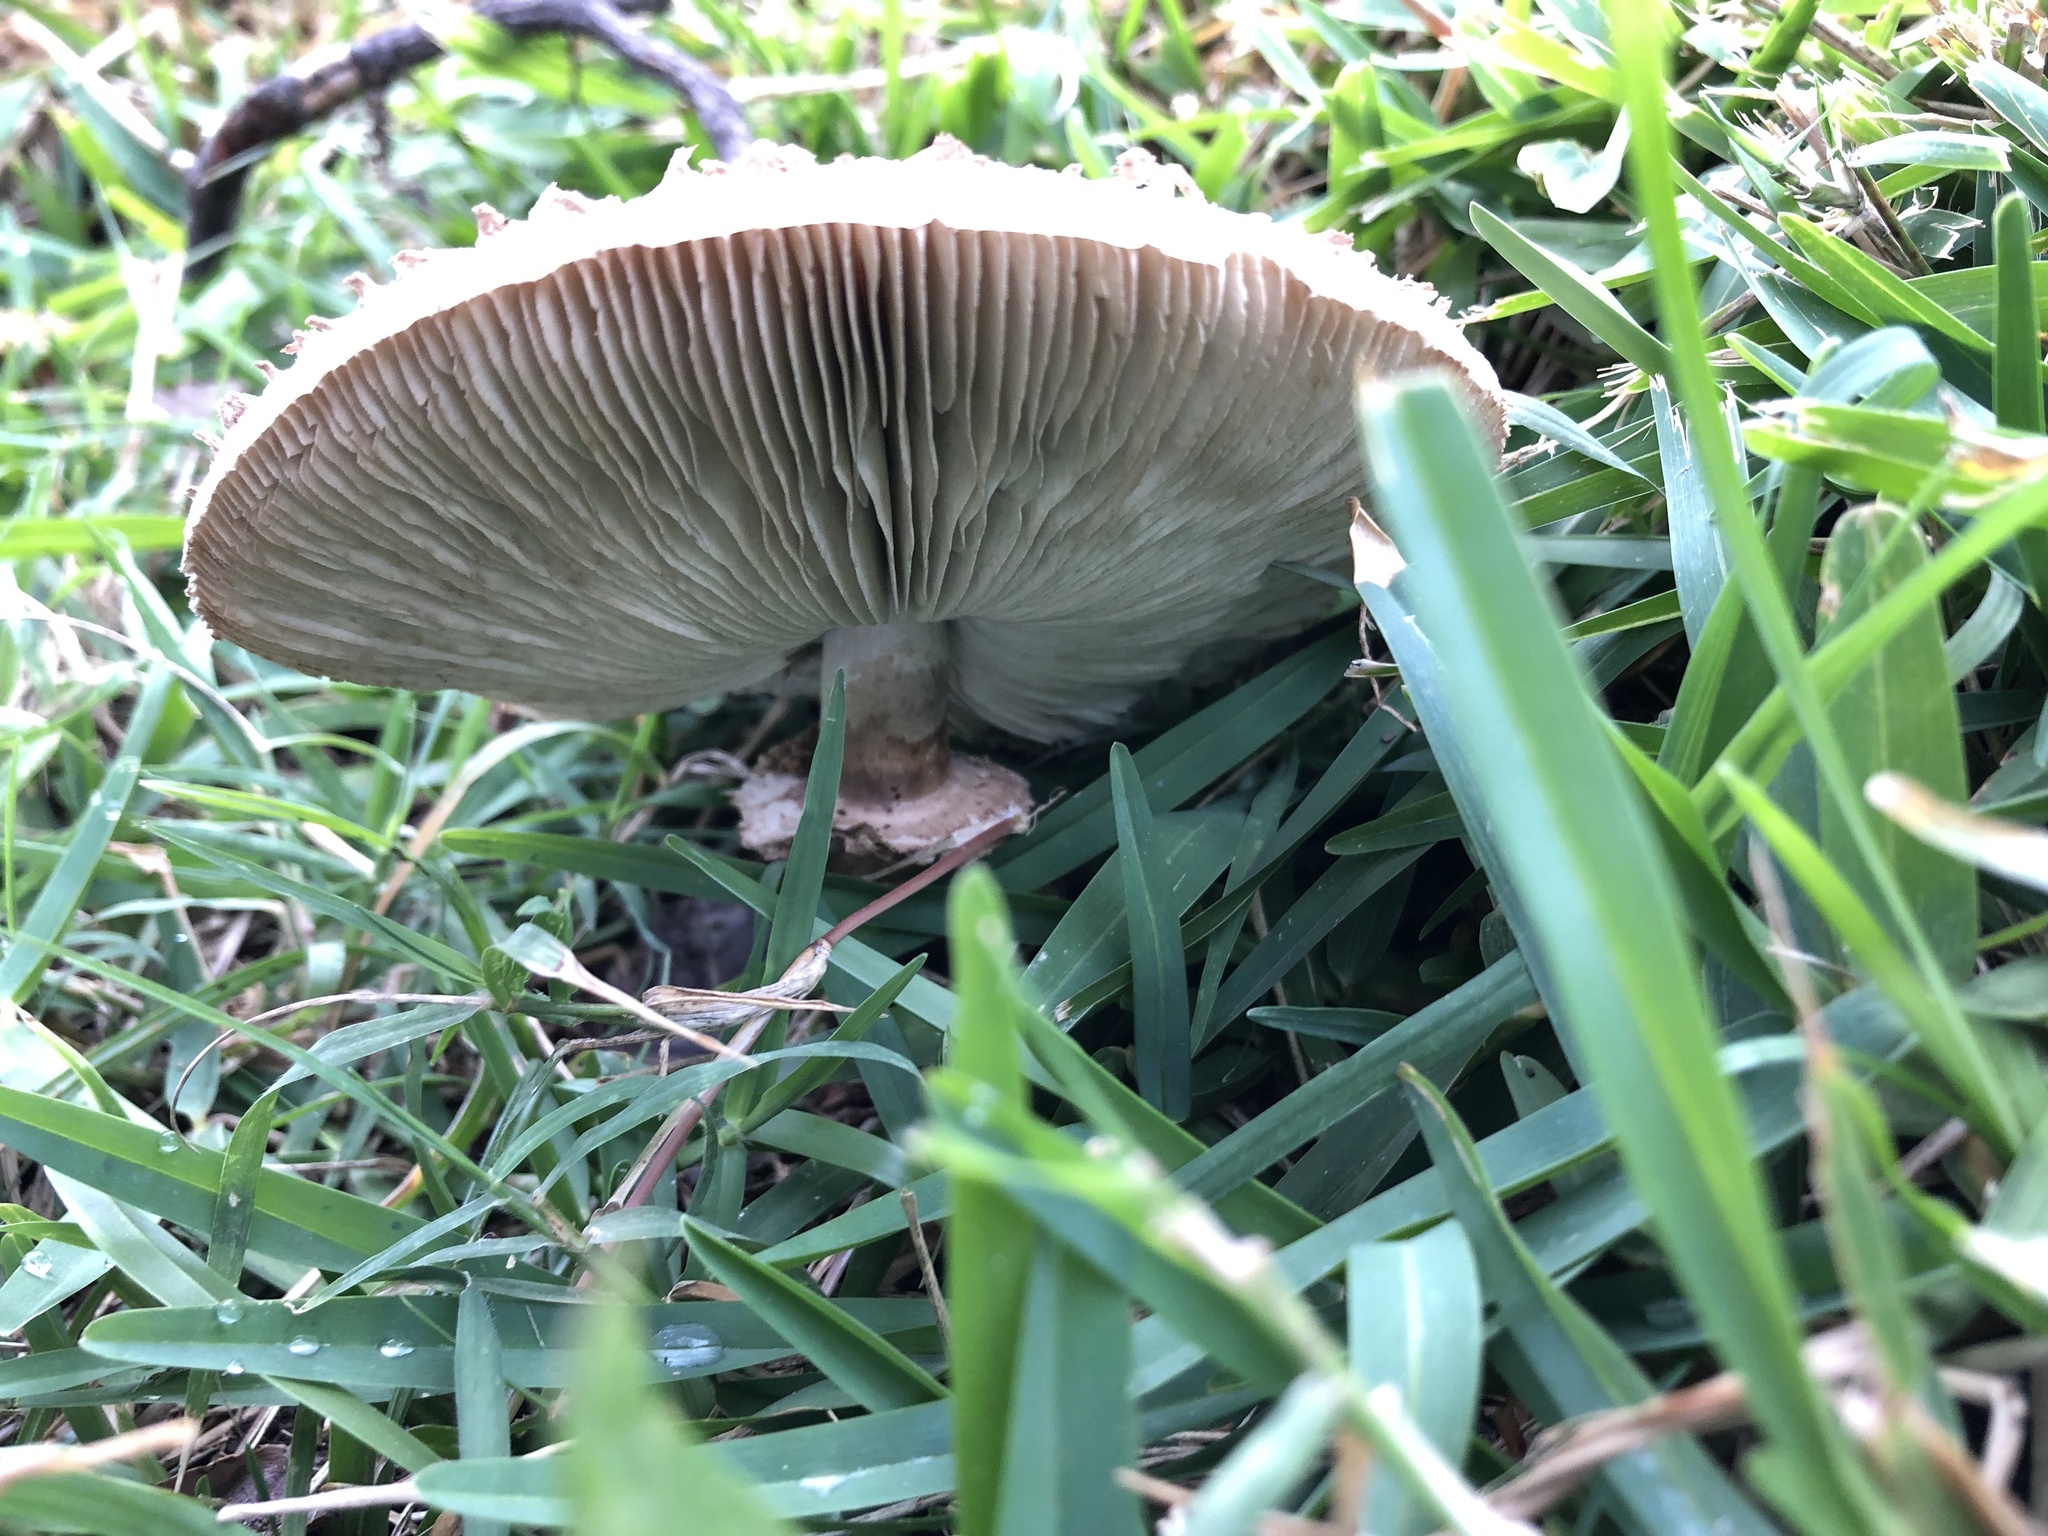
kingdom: Fungi
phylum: Basidiomycota
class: Agaricomycetes
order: Agaricales
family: Agaricaceae
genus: Chlorophyllum
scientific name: Chlorophyllum molybdites
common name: False parasol
